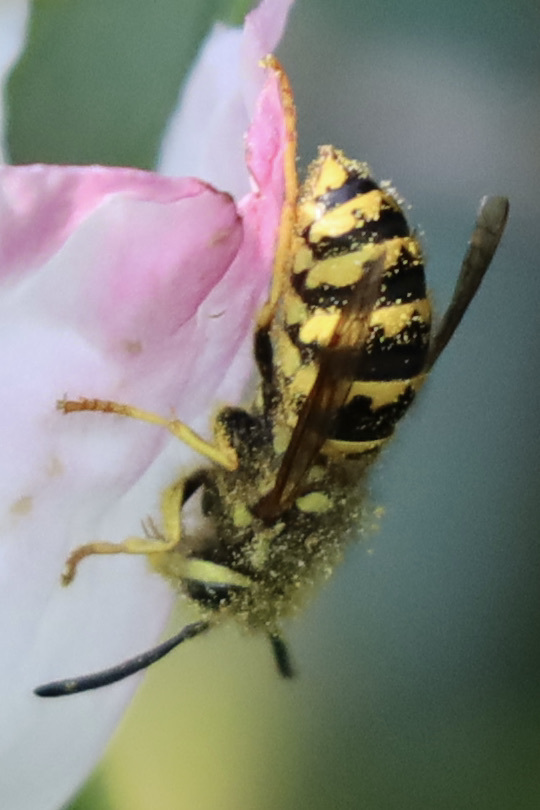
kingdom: Animalia
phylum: Arthropoda
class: Insecta
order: Hymenoptera
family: Vespidae
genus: Vespula
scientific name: Vespula pensylvanica
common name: Western yellowjacket
